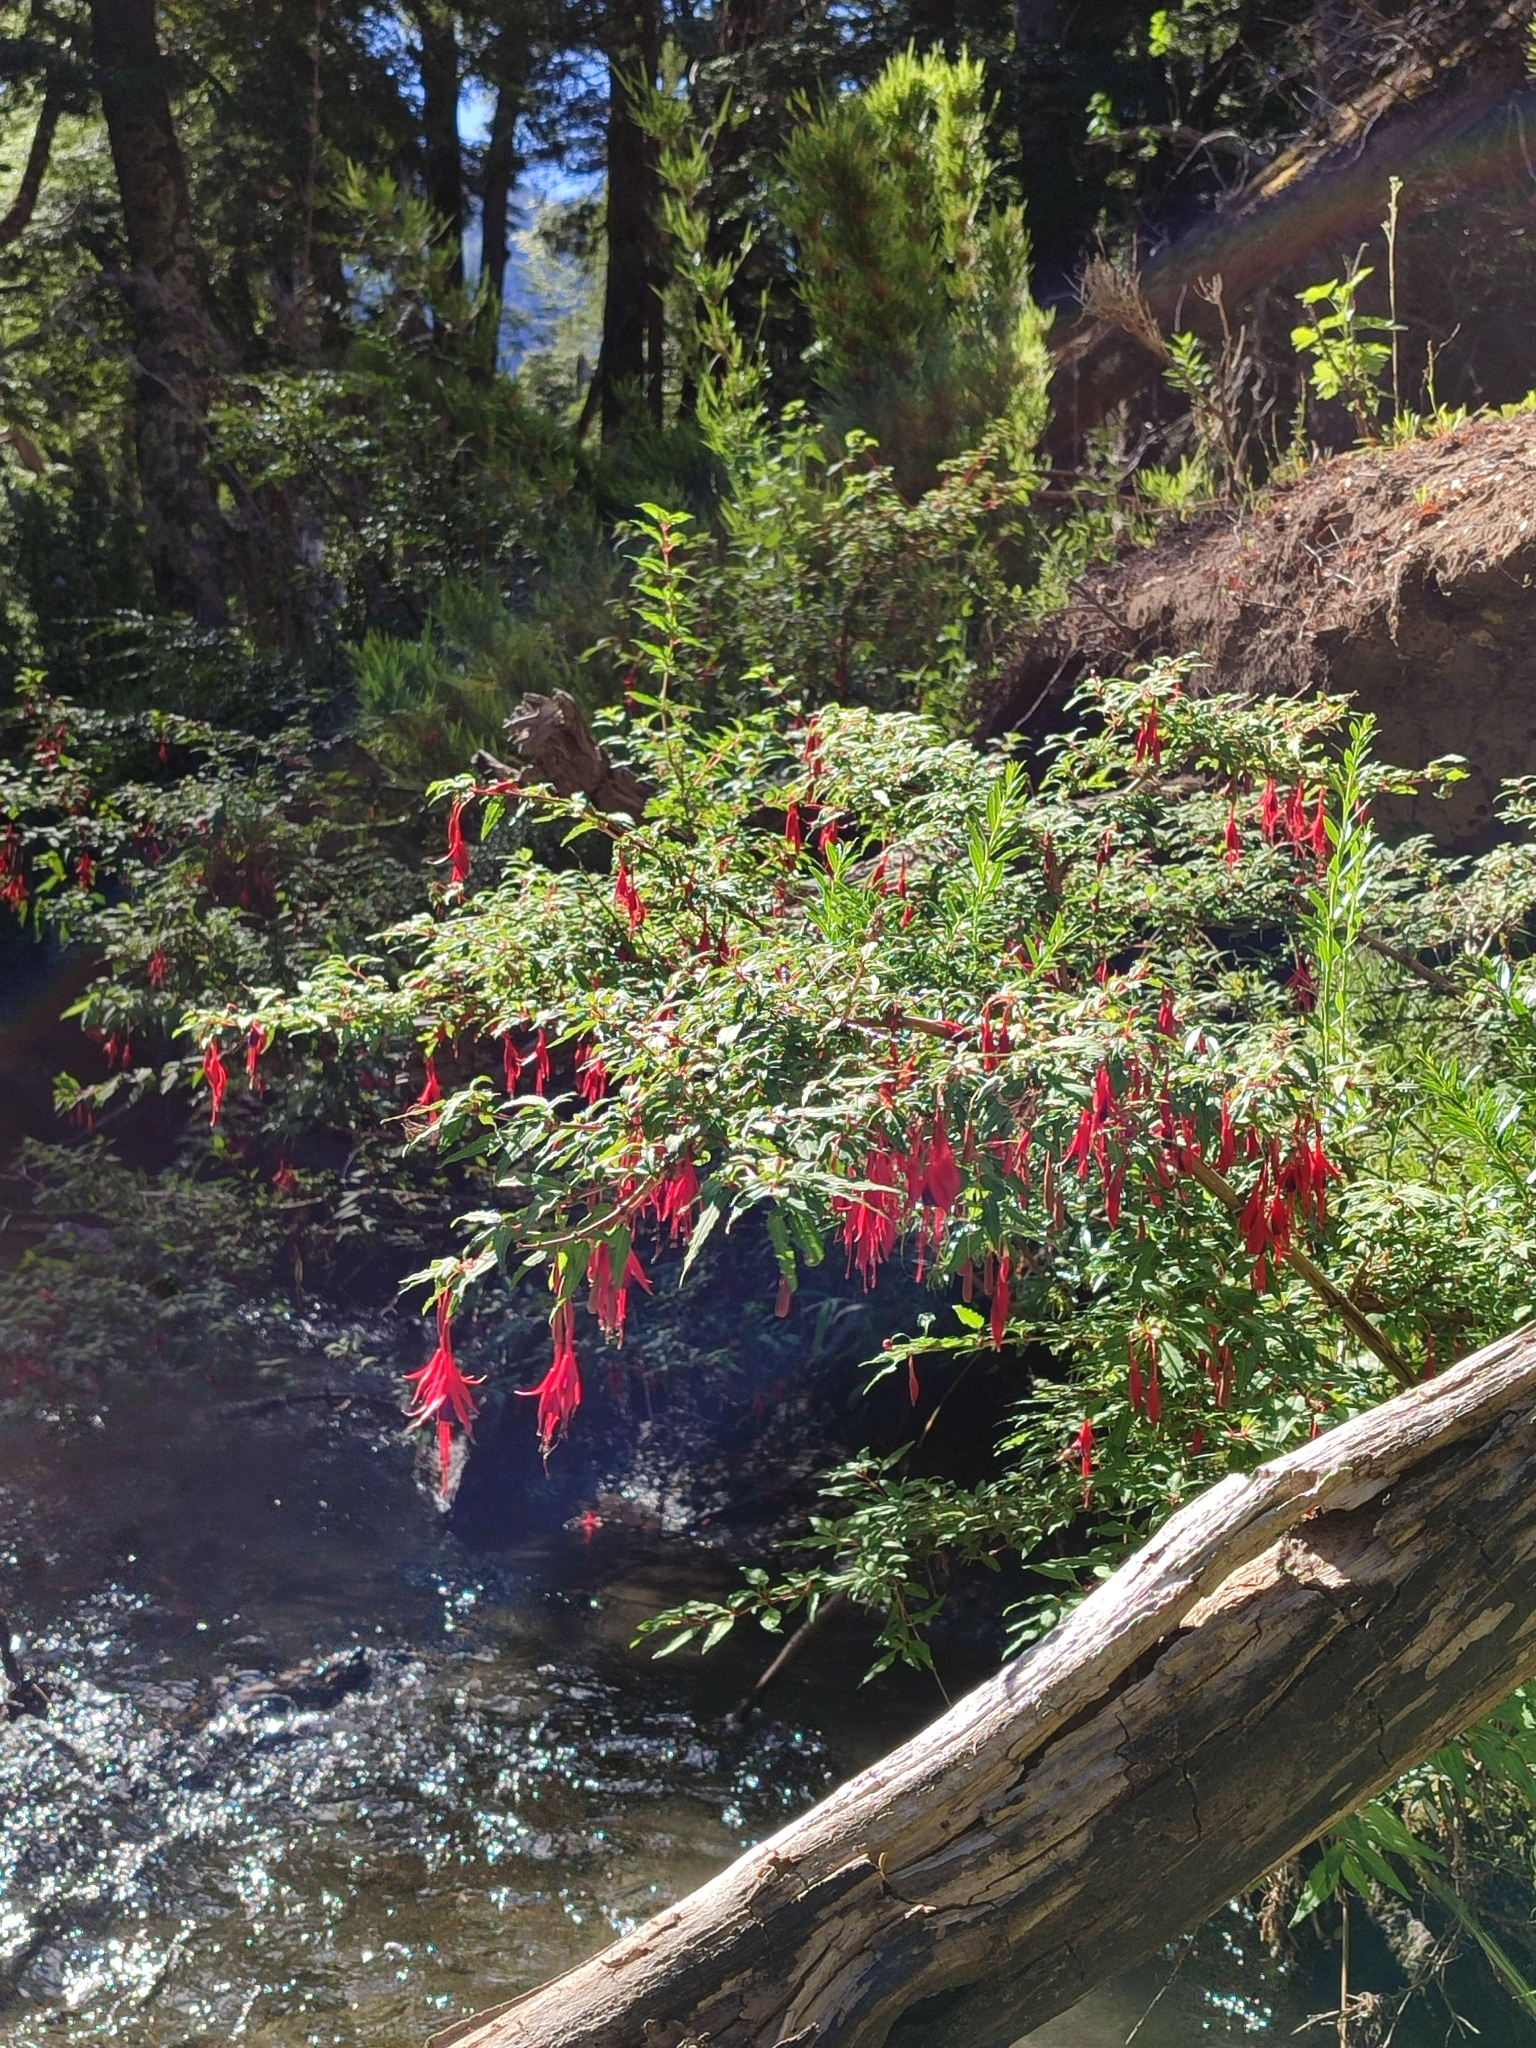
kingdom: Plantae
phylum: Tracheophyta
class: Magnoliopsida
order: Myrtales
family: Onagraceae
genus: Fuchsia
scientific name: Fuchsia magellanica
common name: Hardy fuchsia
